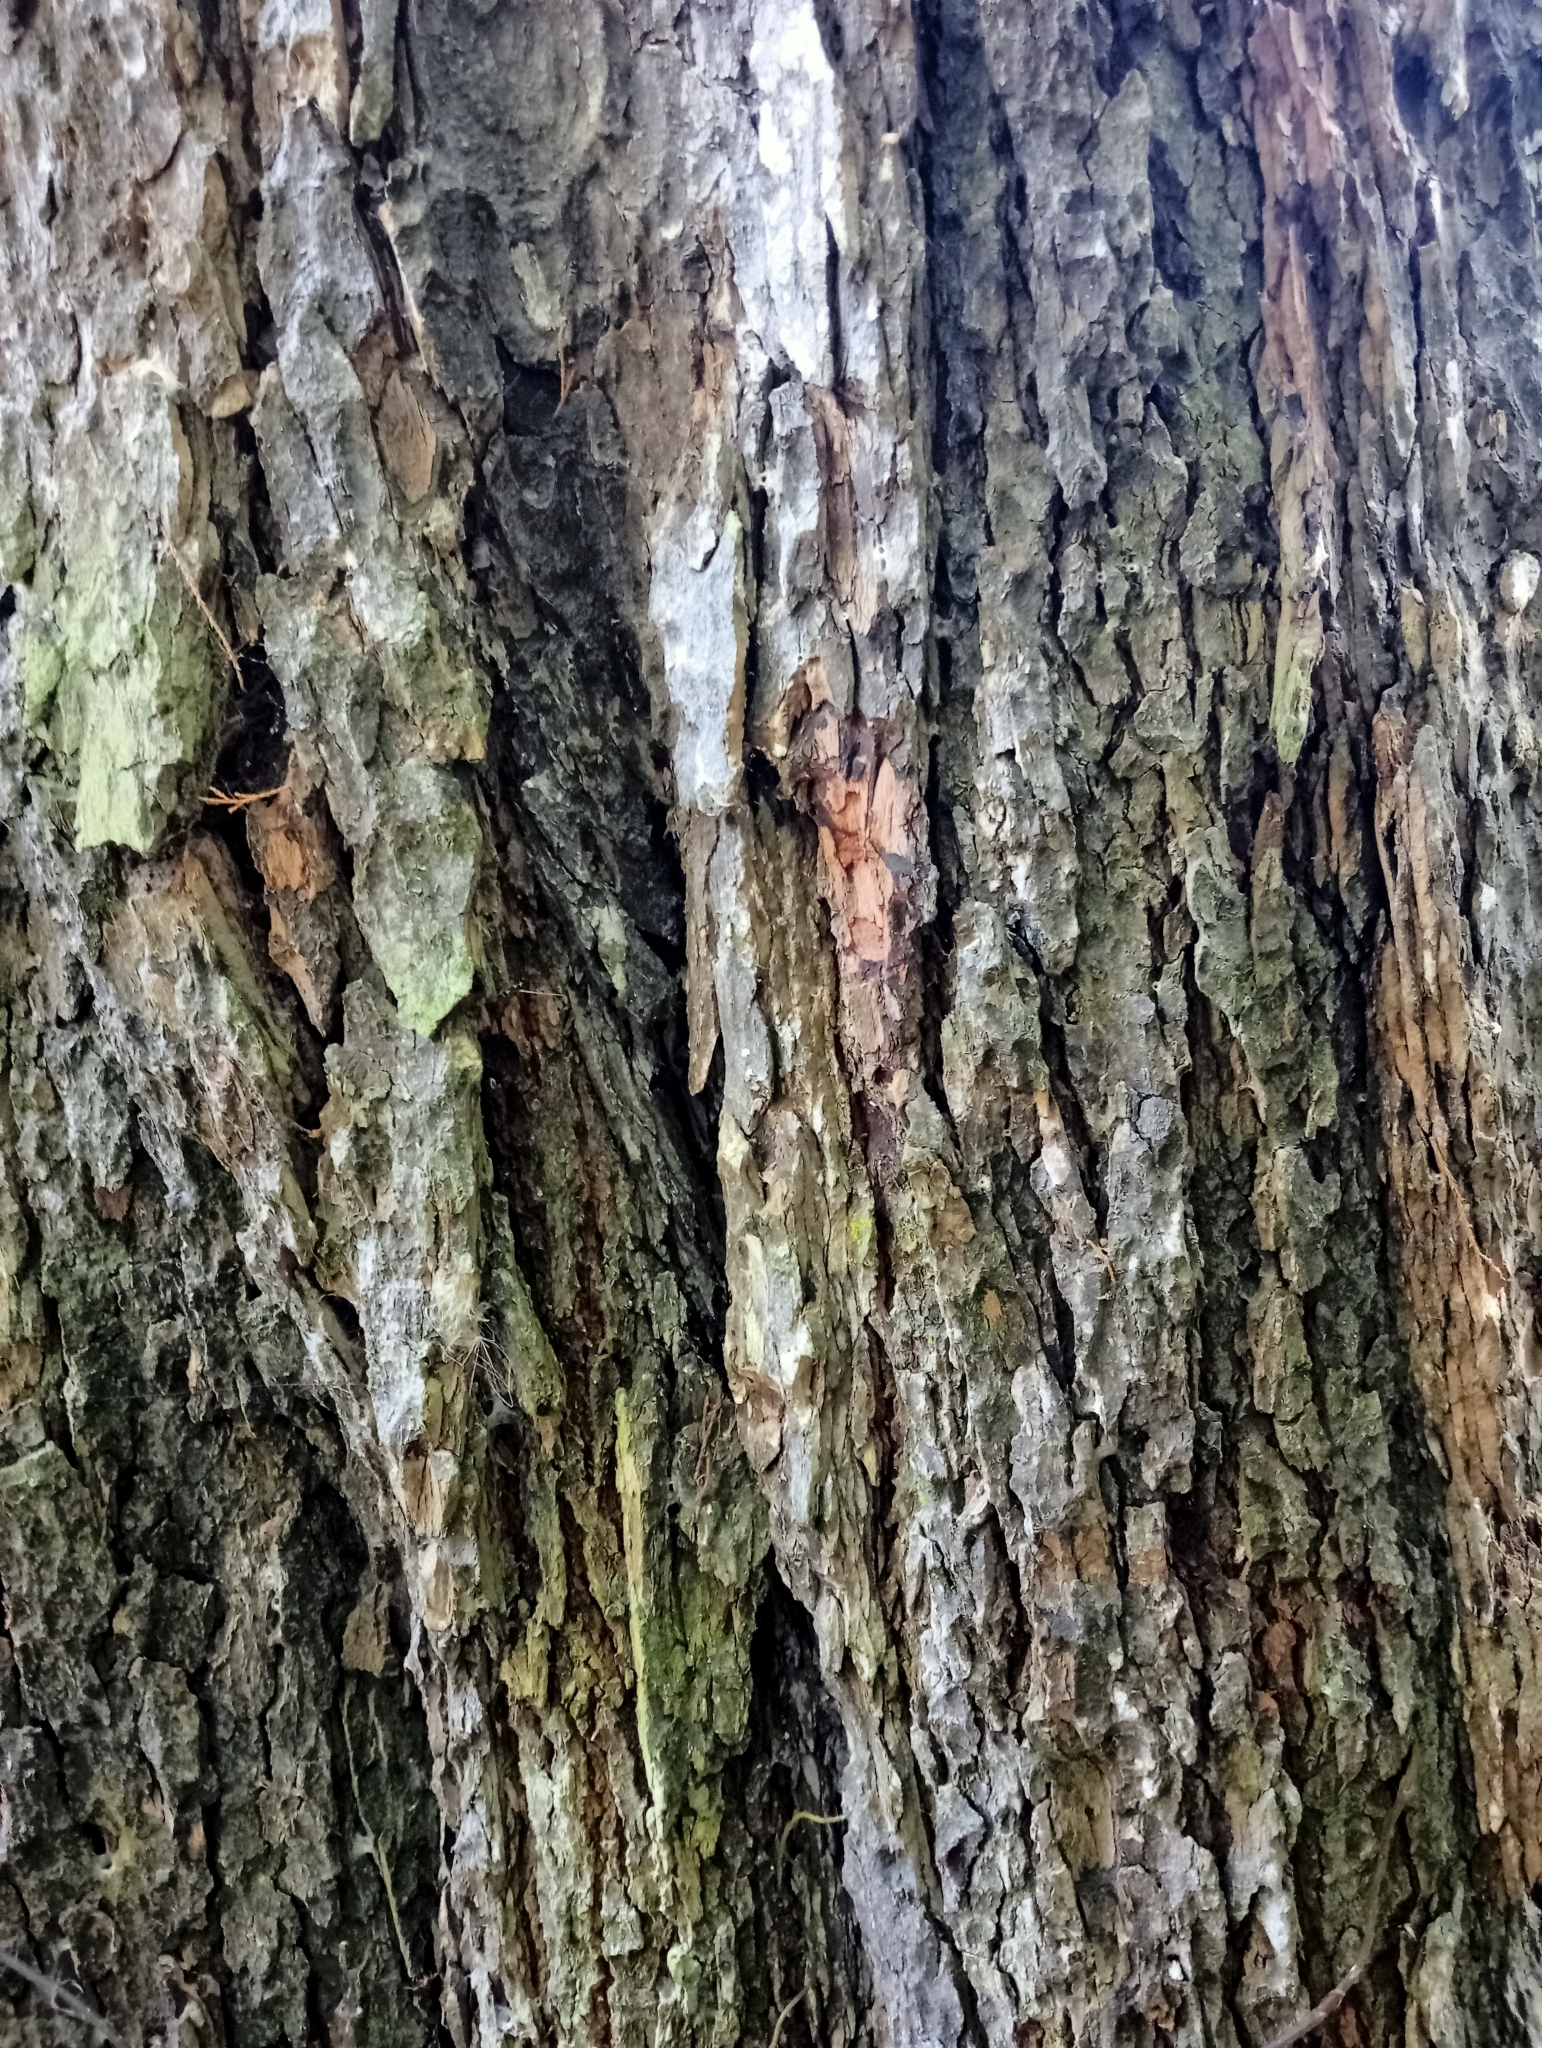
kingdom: Plantae
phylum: Tracheophyta
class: Pinopsida
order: Pinales
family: Podocarpaceae
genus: Dacrycarpus
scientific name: Dacrycarpus dacrydioides
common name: White pine
